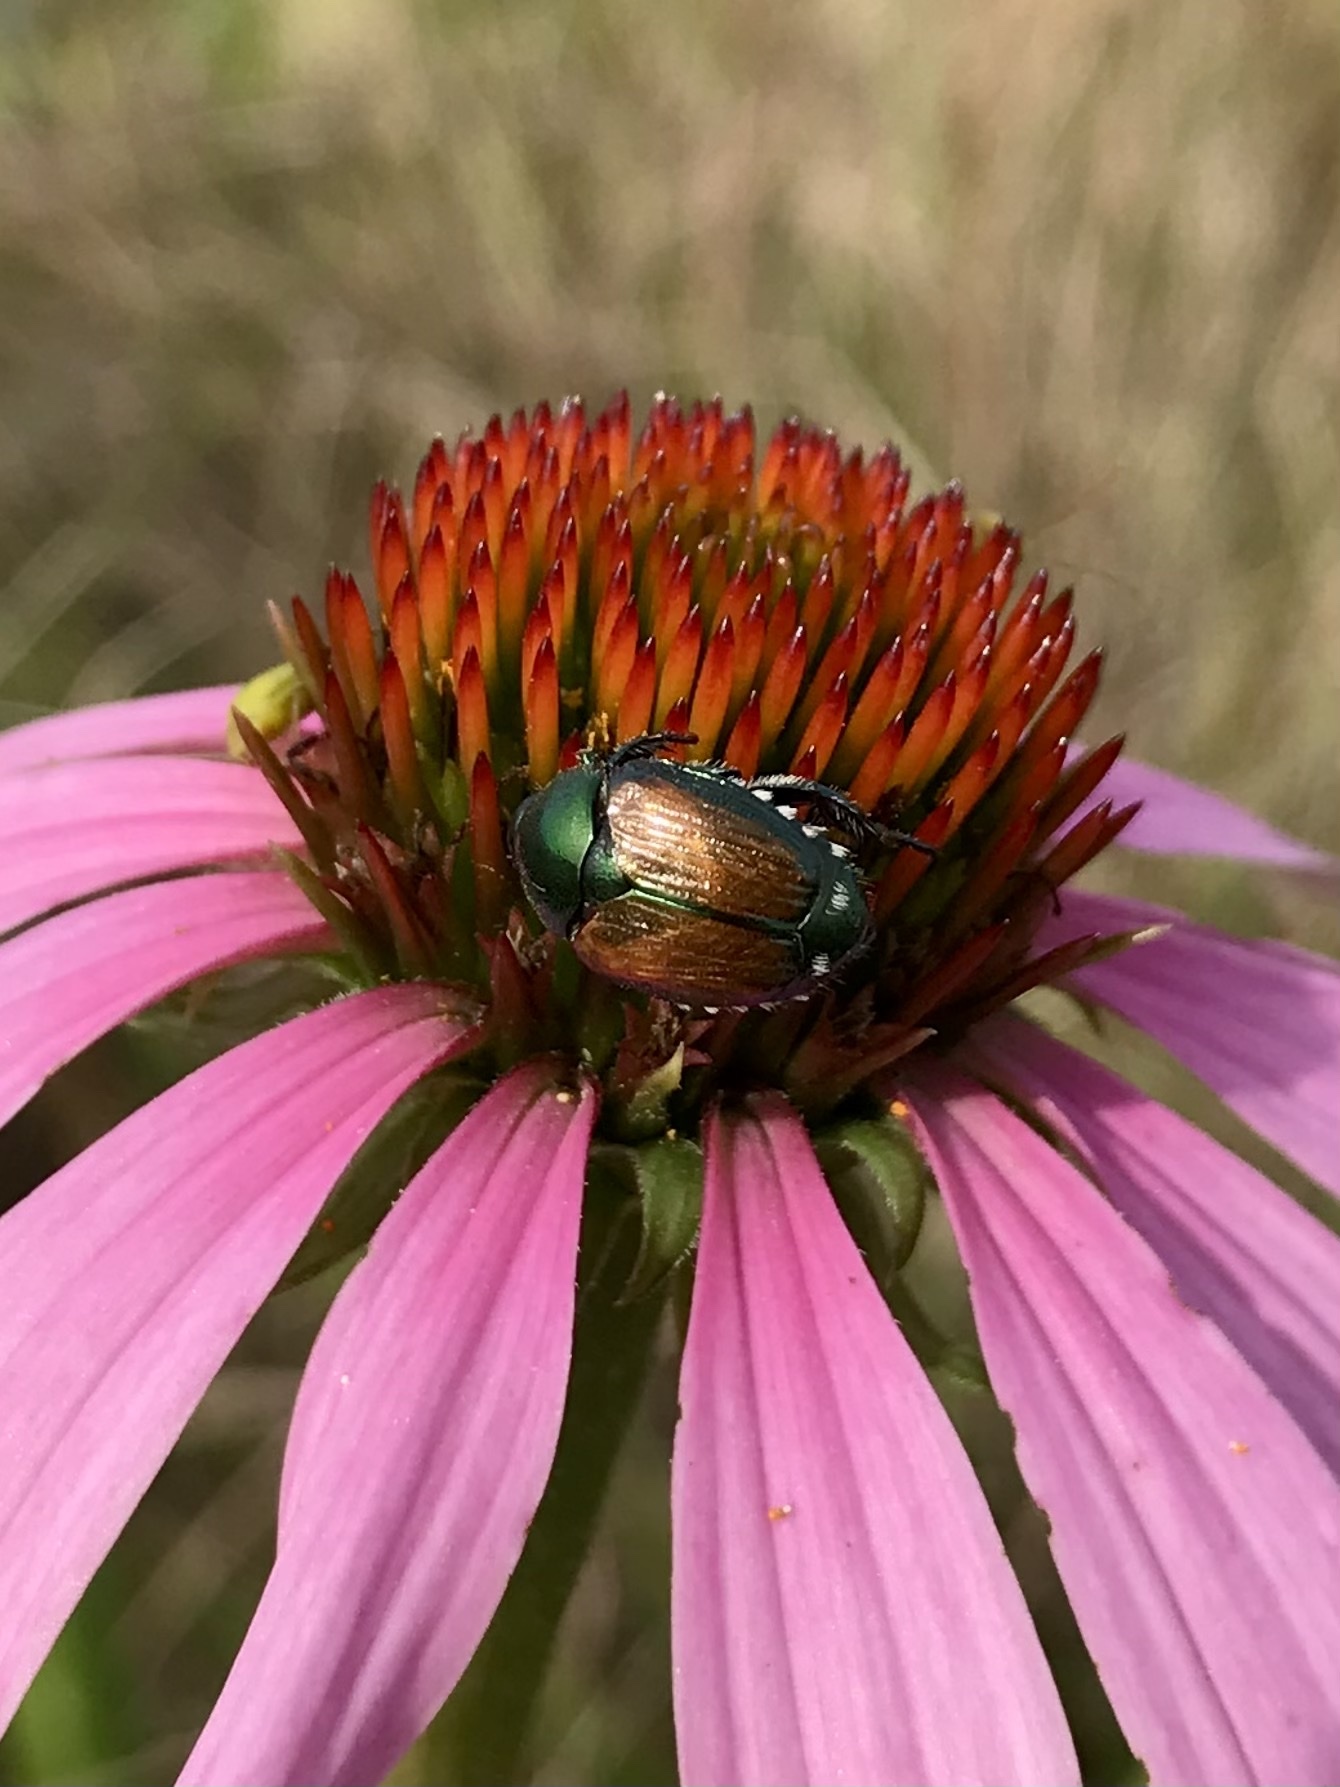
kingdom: Animalia
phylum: Arthropoda
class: Insecta
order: Coleoptera
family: Scarabaeidae
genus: Popillia
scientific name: Popillia japonica
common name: Japanese beetle
